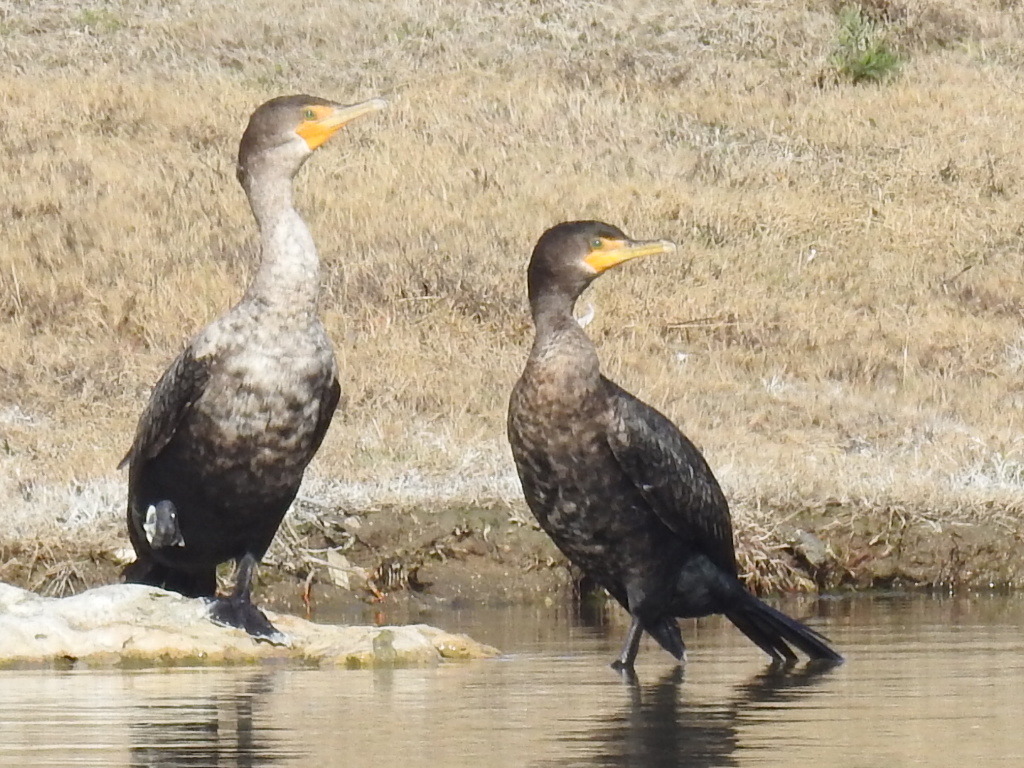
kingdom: Animalia
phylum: Chordata
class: Aves
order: Suliformes
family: Phalacrocoracidae
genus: Phalacrocorax
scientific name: Phalacrocorax auritus
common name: Double-crested cormorant
